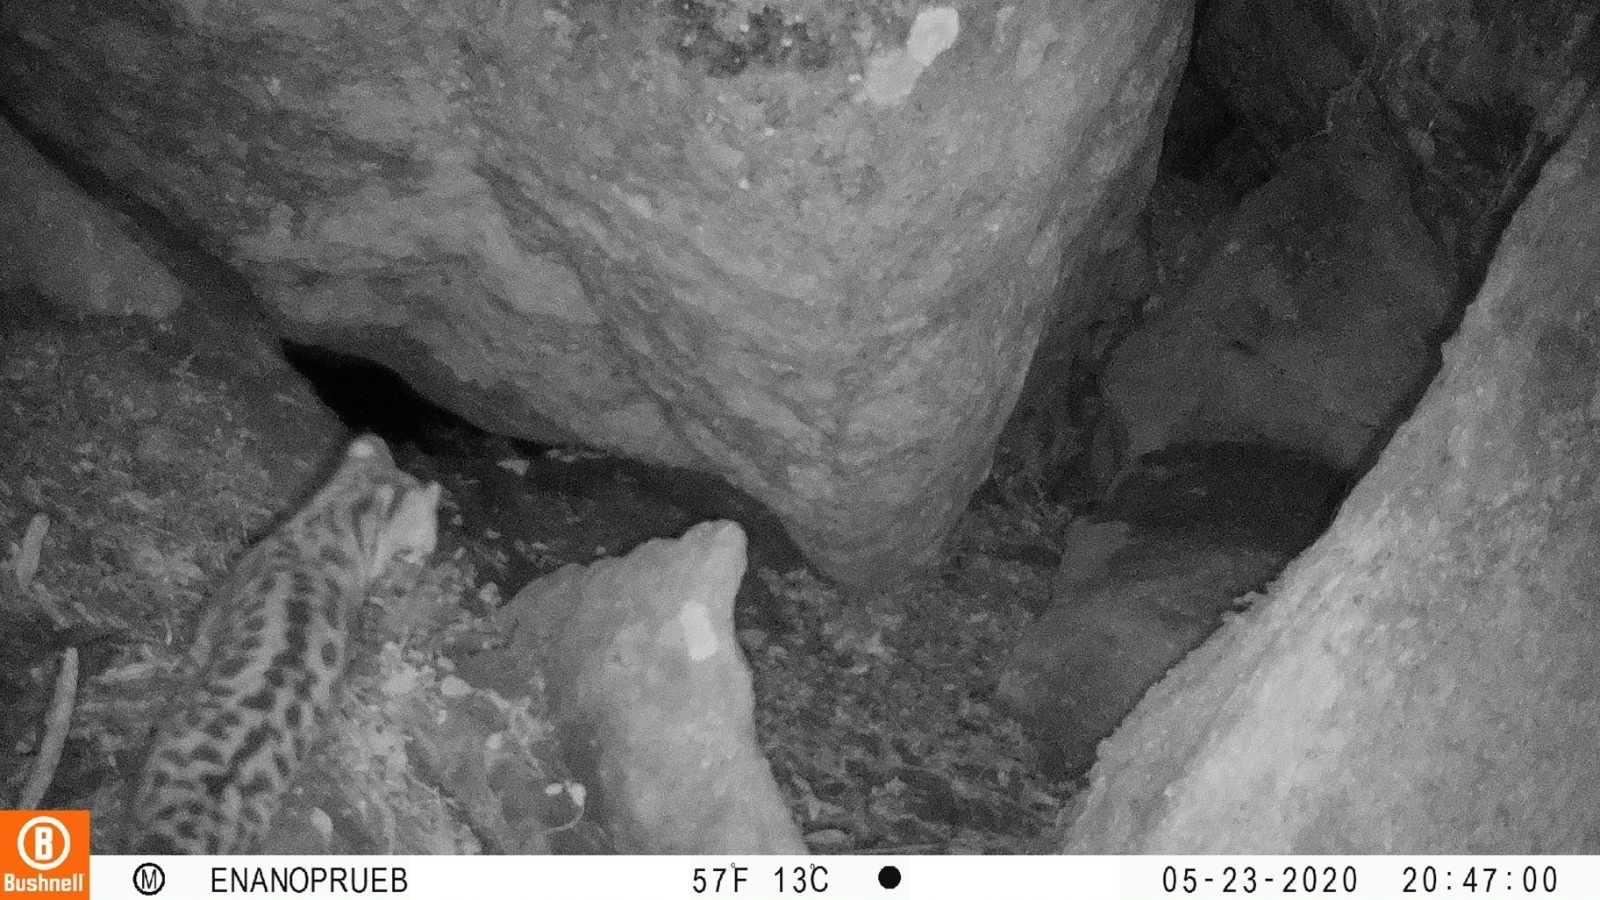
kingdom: Animalia
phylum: Chordata
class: Mammalia
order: Carnivora
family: Felidae
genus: Leopardus
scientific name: Leopardus wiedii
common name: Margay
